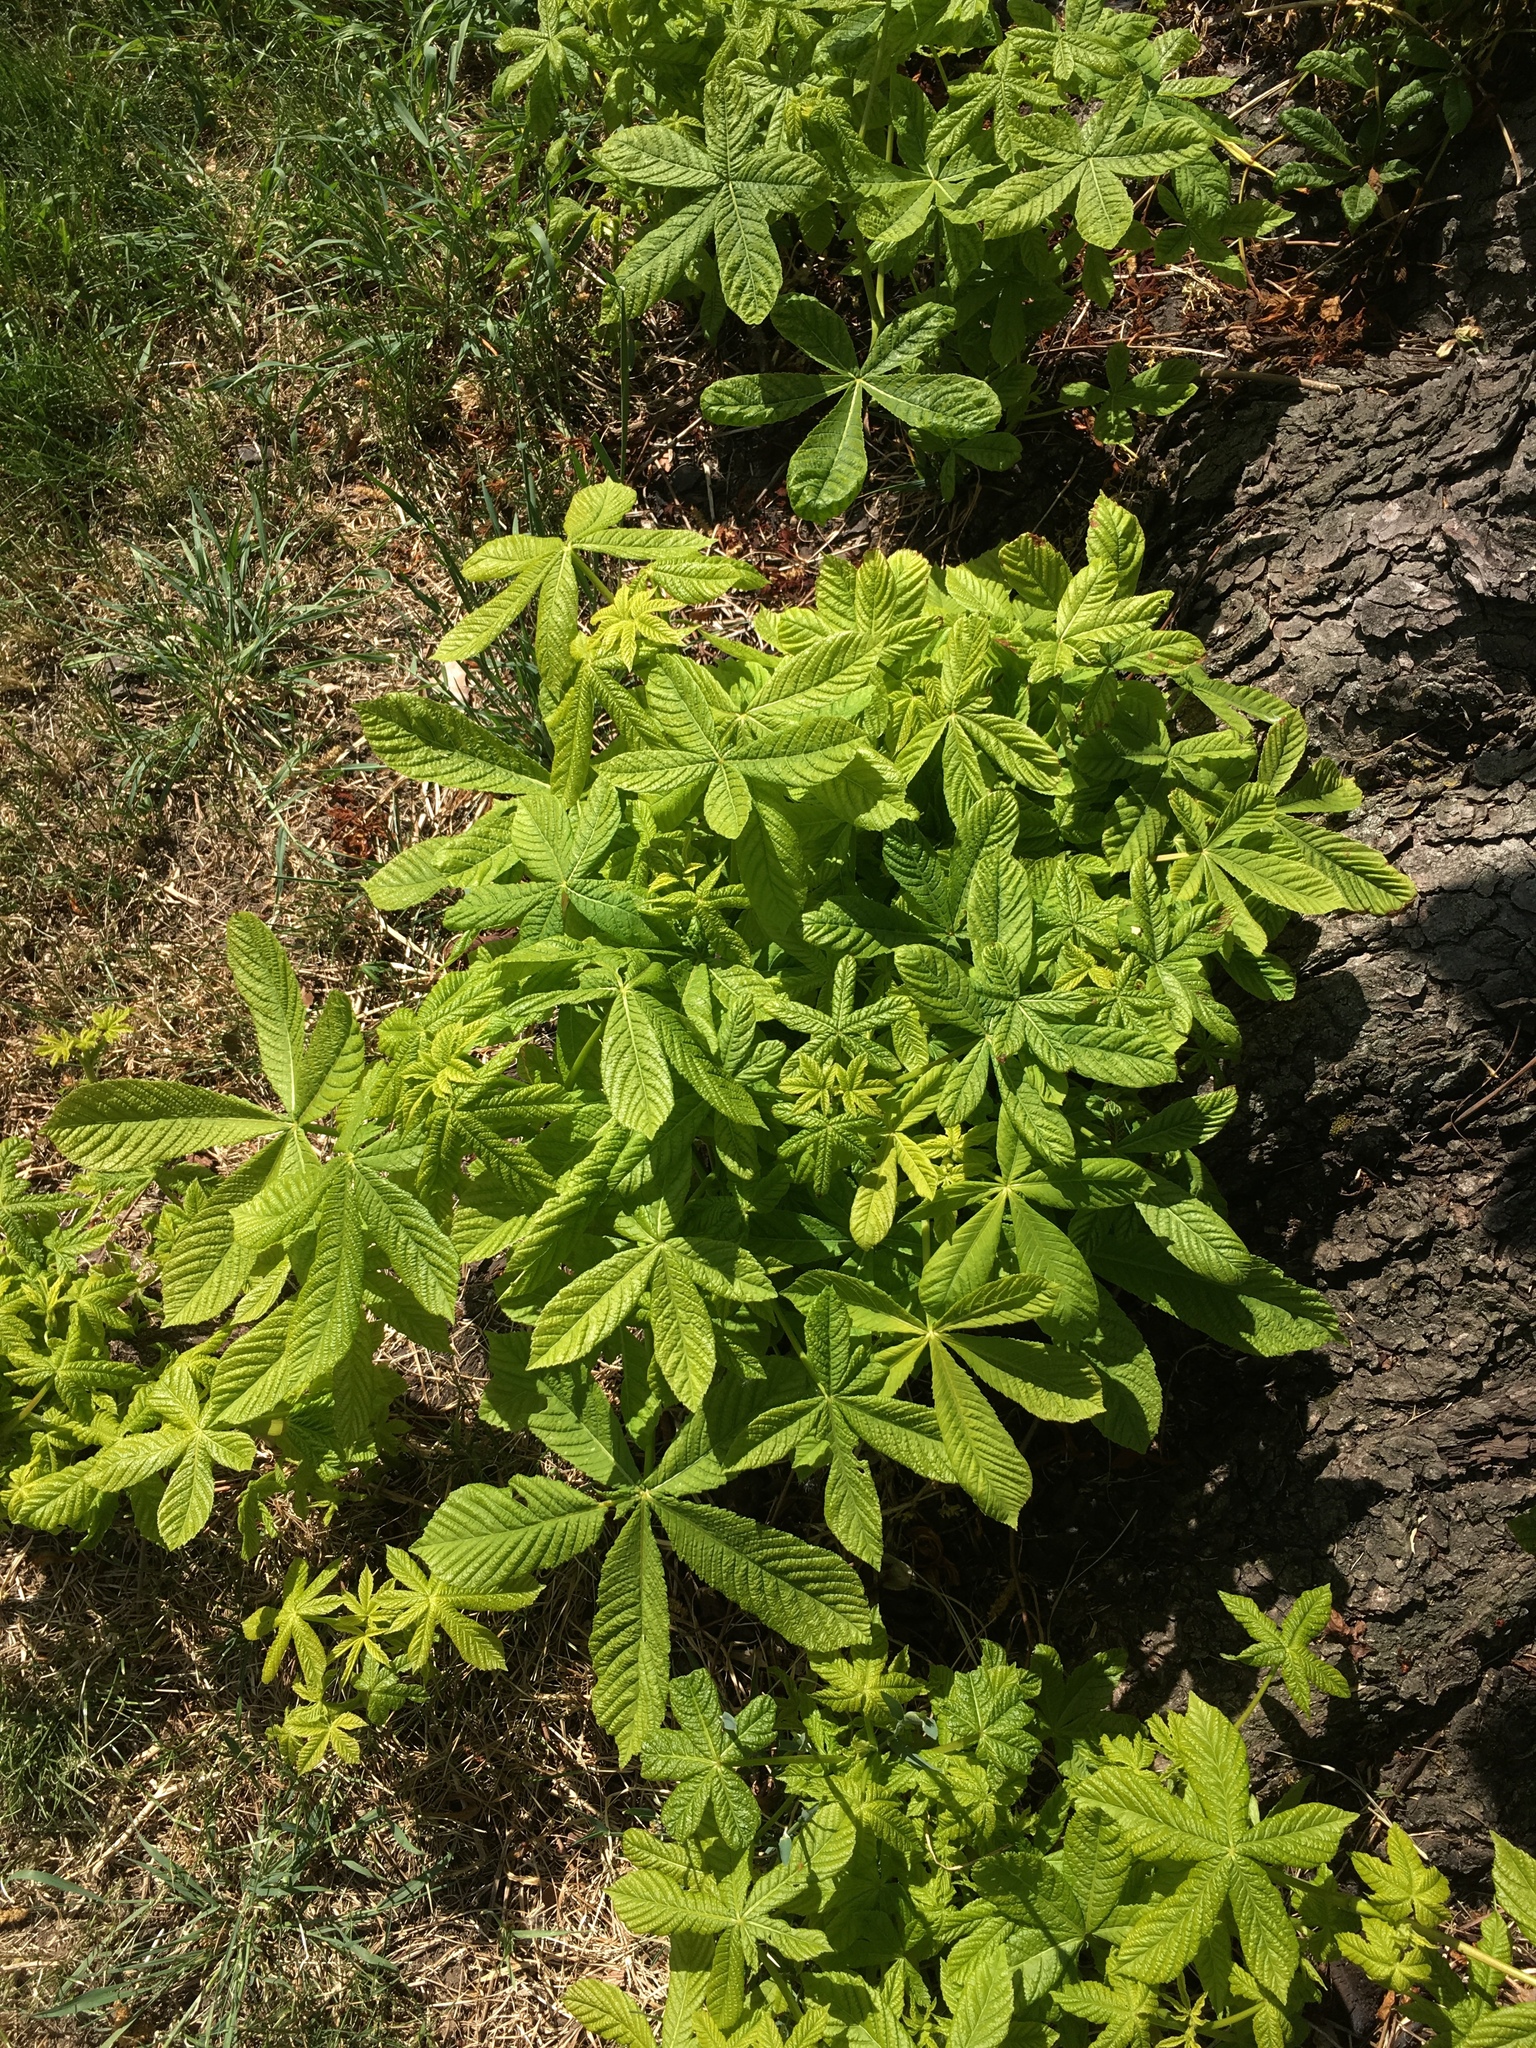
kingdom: Plantae
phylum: Tracheophyta
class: Magnoliopsida
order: Sapindales
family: Sapindaceae
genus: Aesculus
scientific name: Aesculus hippocastanum
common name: Horse-chestnut
